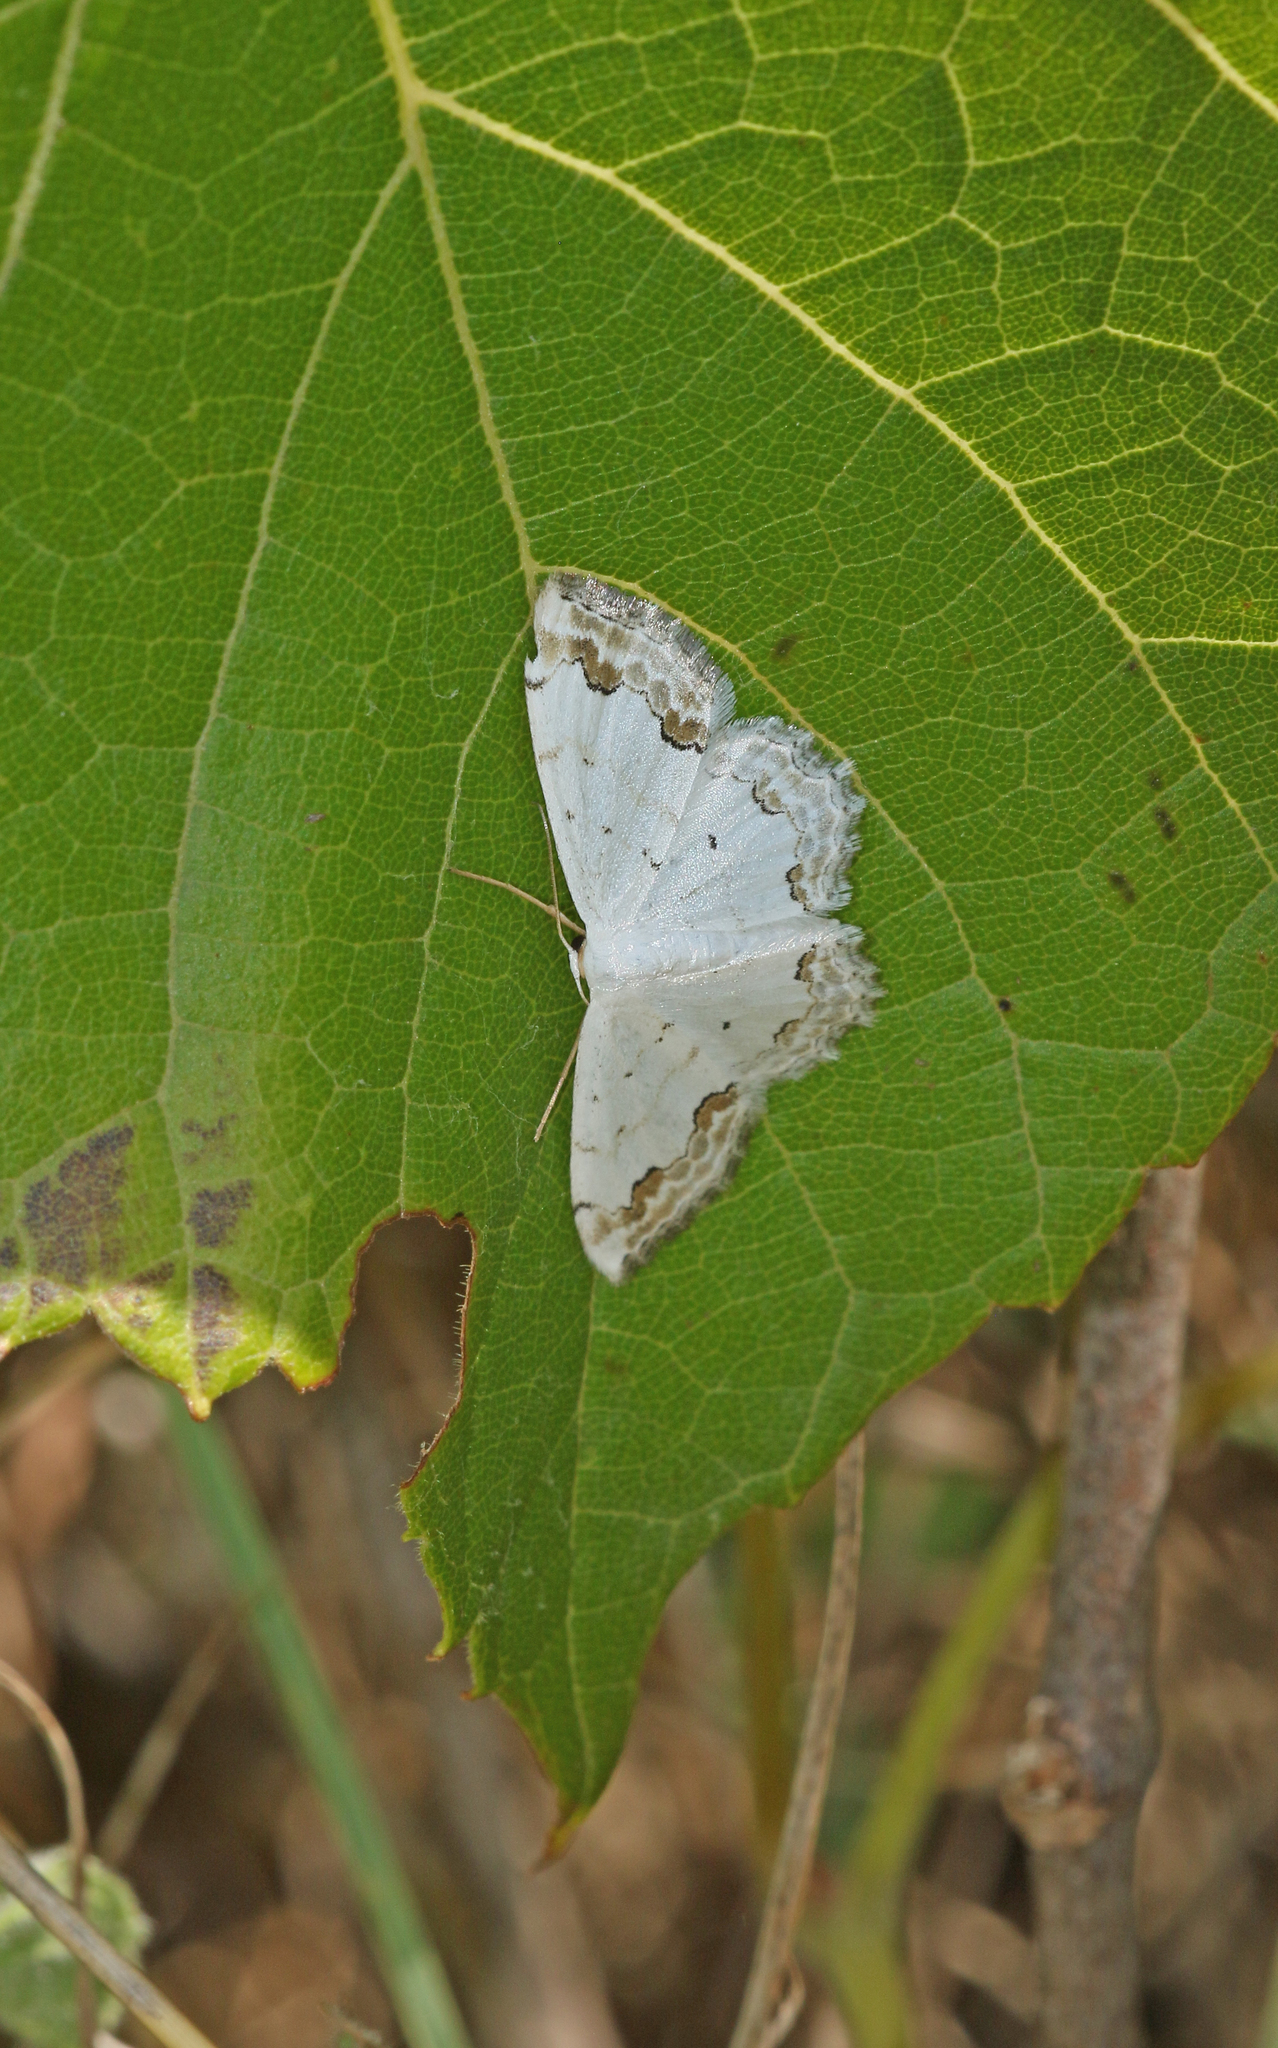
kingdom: Animalia
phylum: Arthropoda
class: Insecta
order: Lepidoptera
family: Geometridae
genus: Scopula
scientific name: Scopula ornata
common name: Lace border
